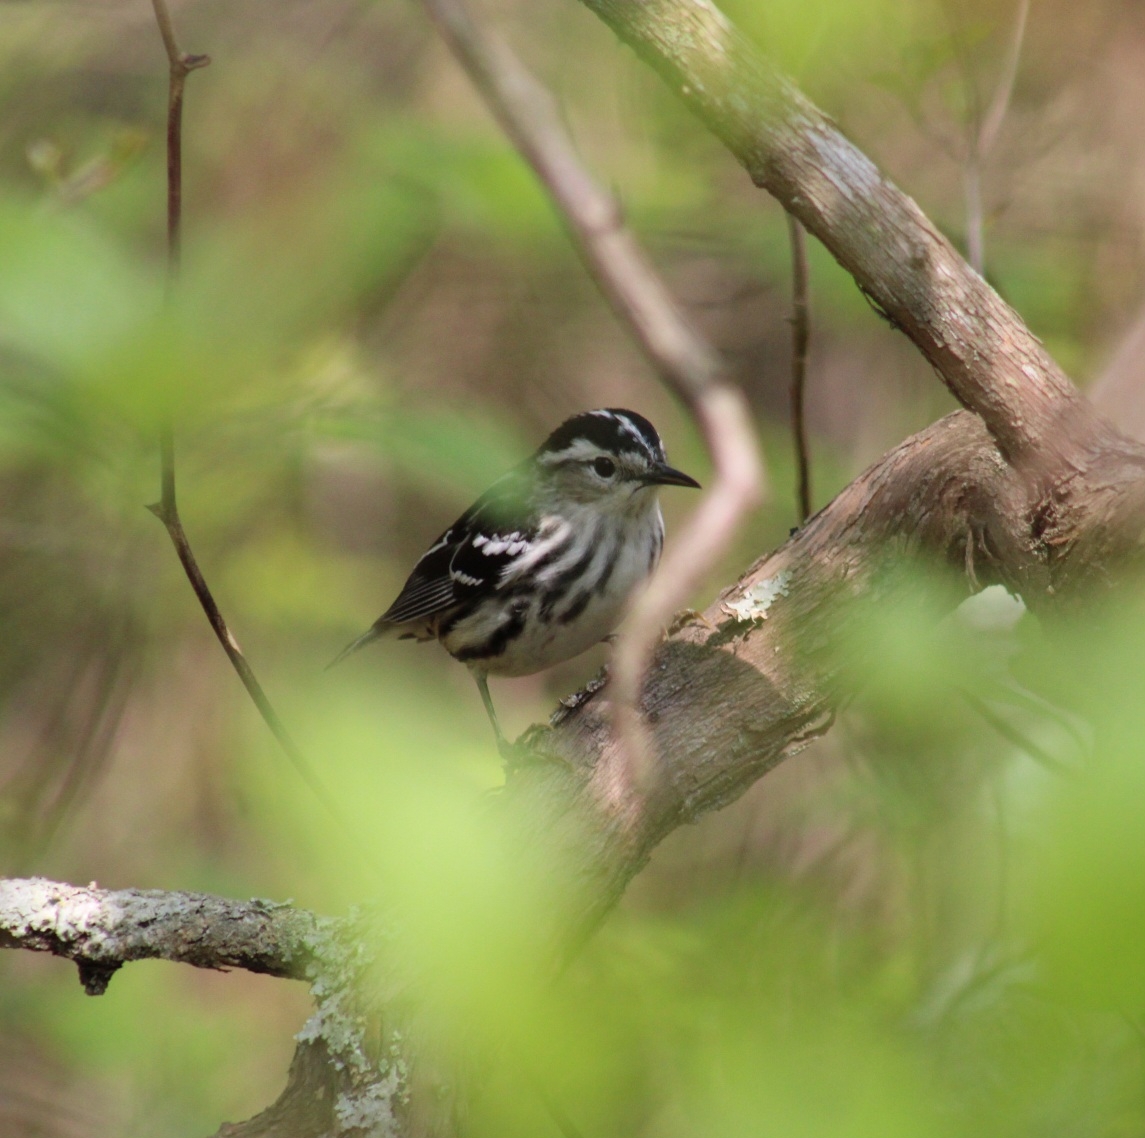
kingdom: Animalia
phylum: Chordata
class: Aves
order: Passeriformes
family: Parulidae
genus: Mniotilta
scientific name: Mniotilta varia
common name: Black-and-white warbler
